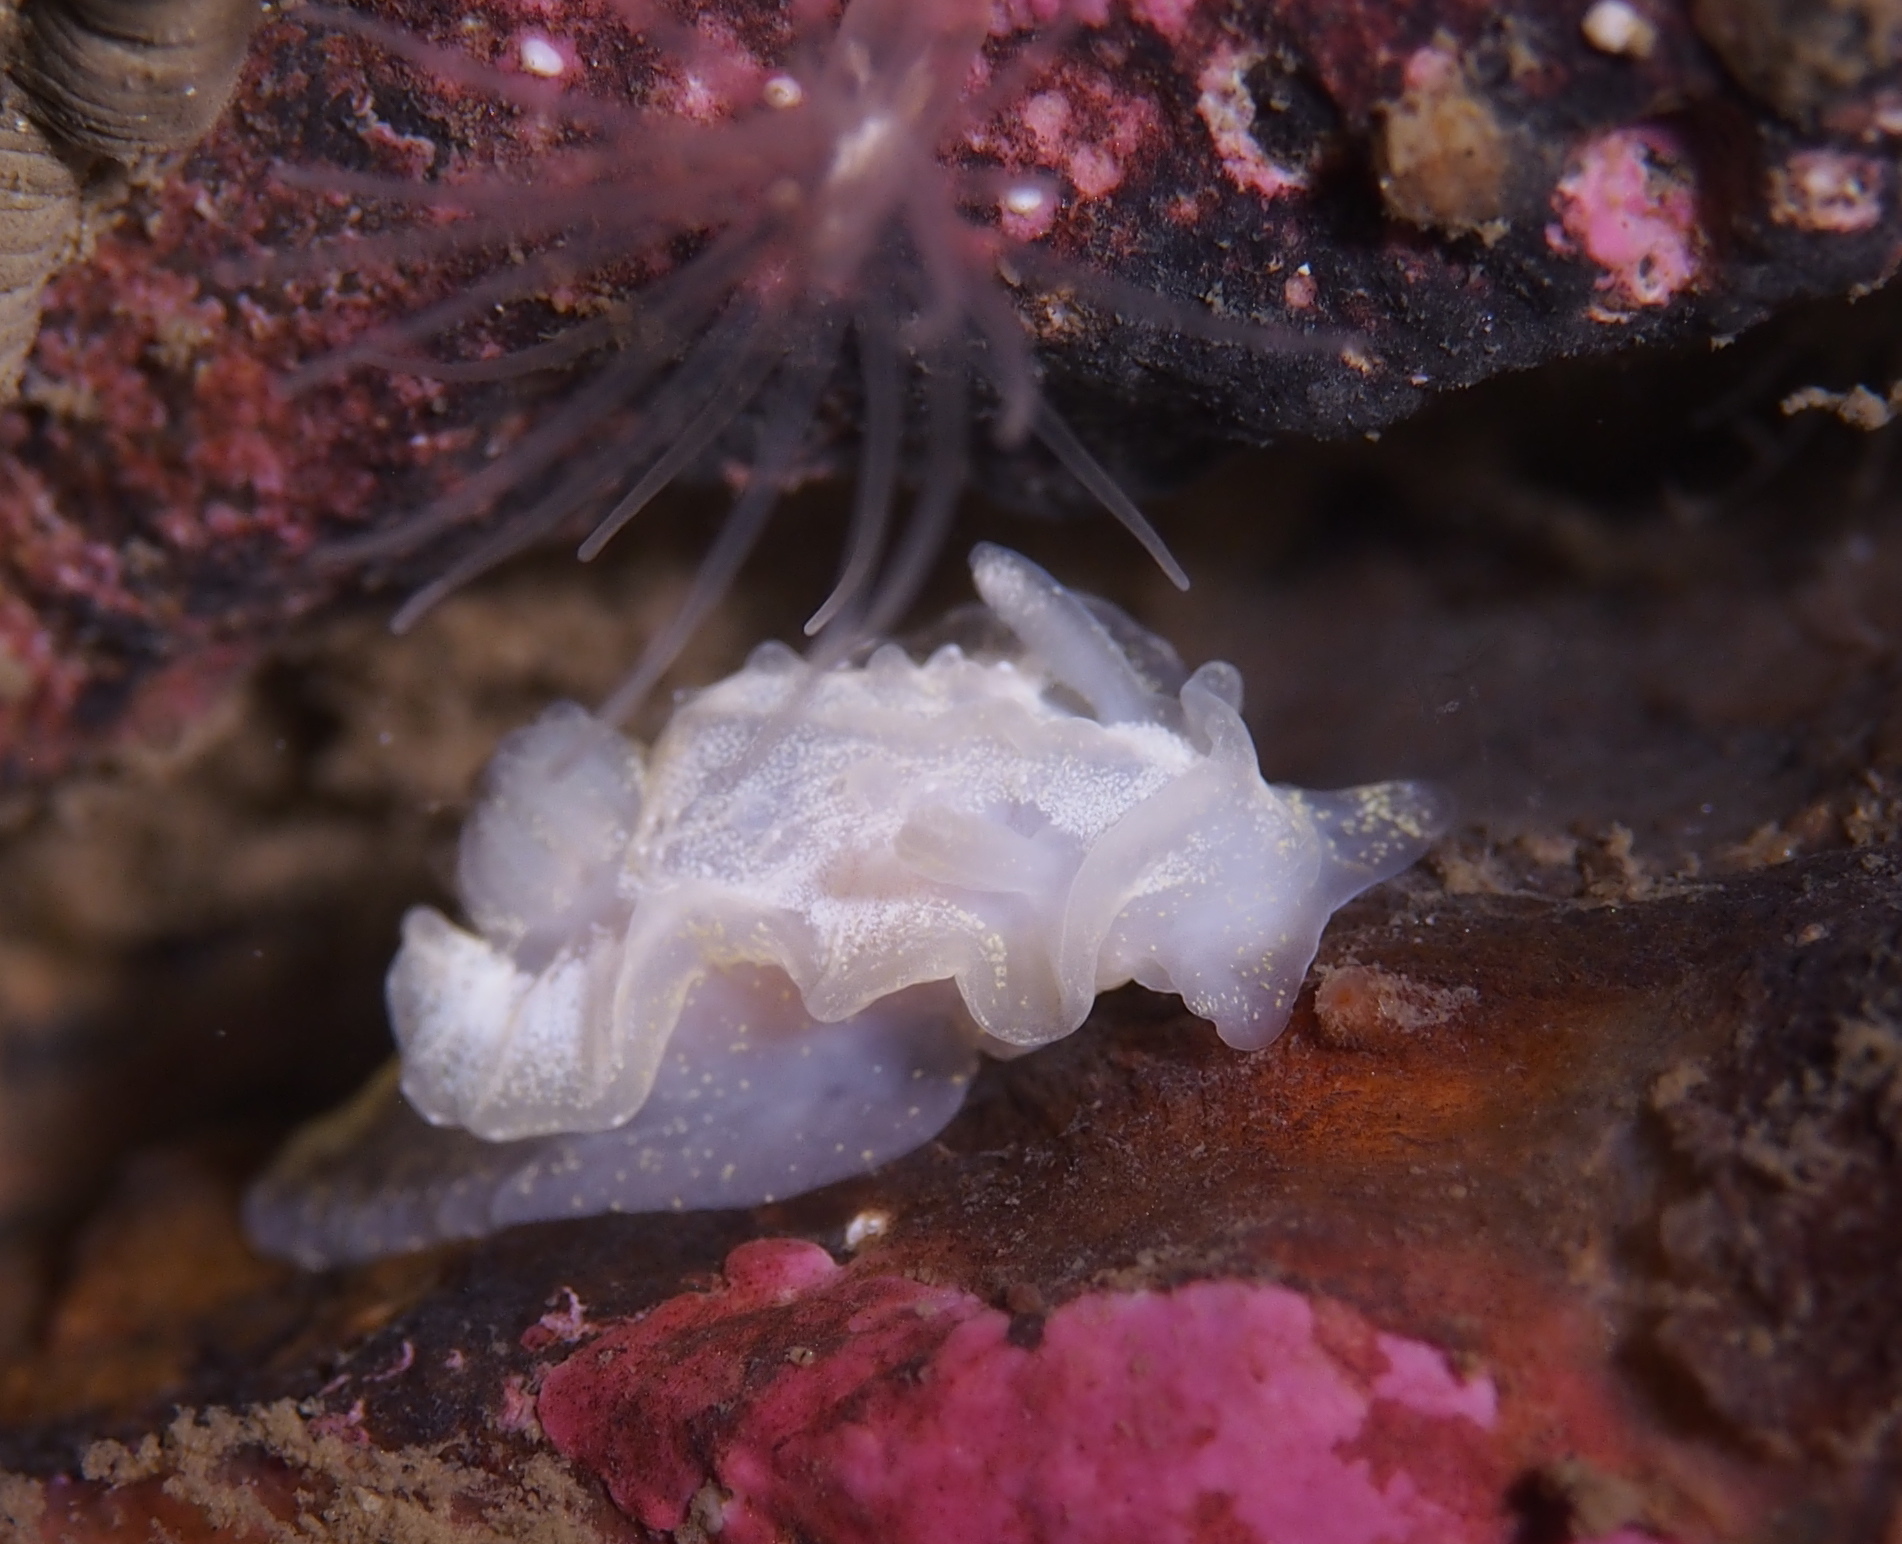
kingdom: Animalia
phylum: Mollusca
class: Gastropoda
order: Nudibranchia
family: Goniodorididae
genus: Okenia
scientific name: Okenia
